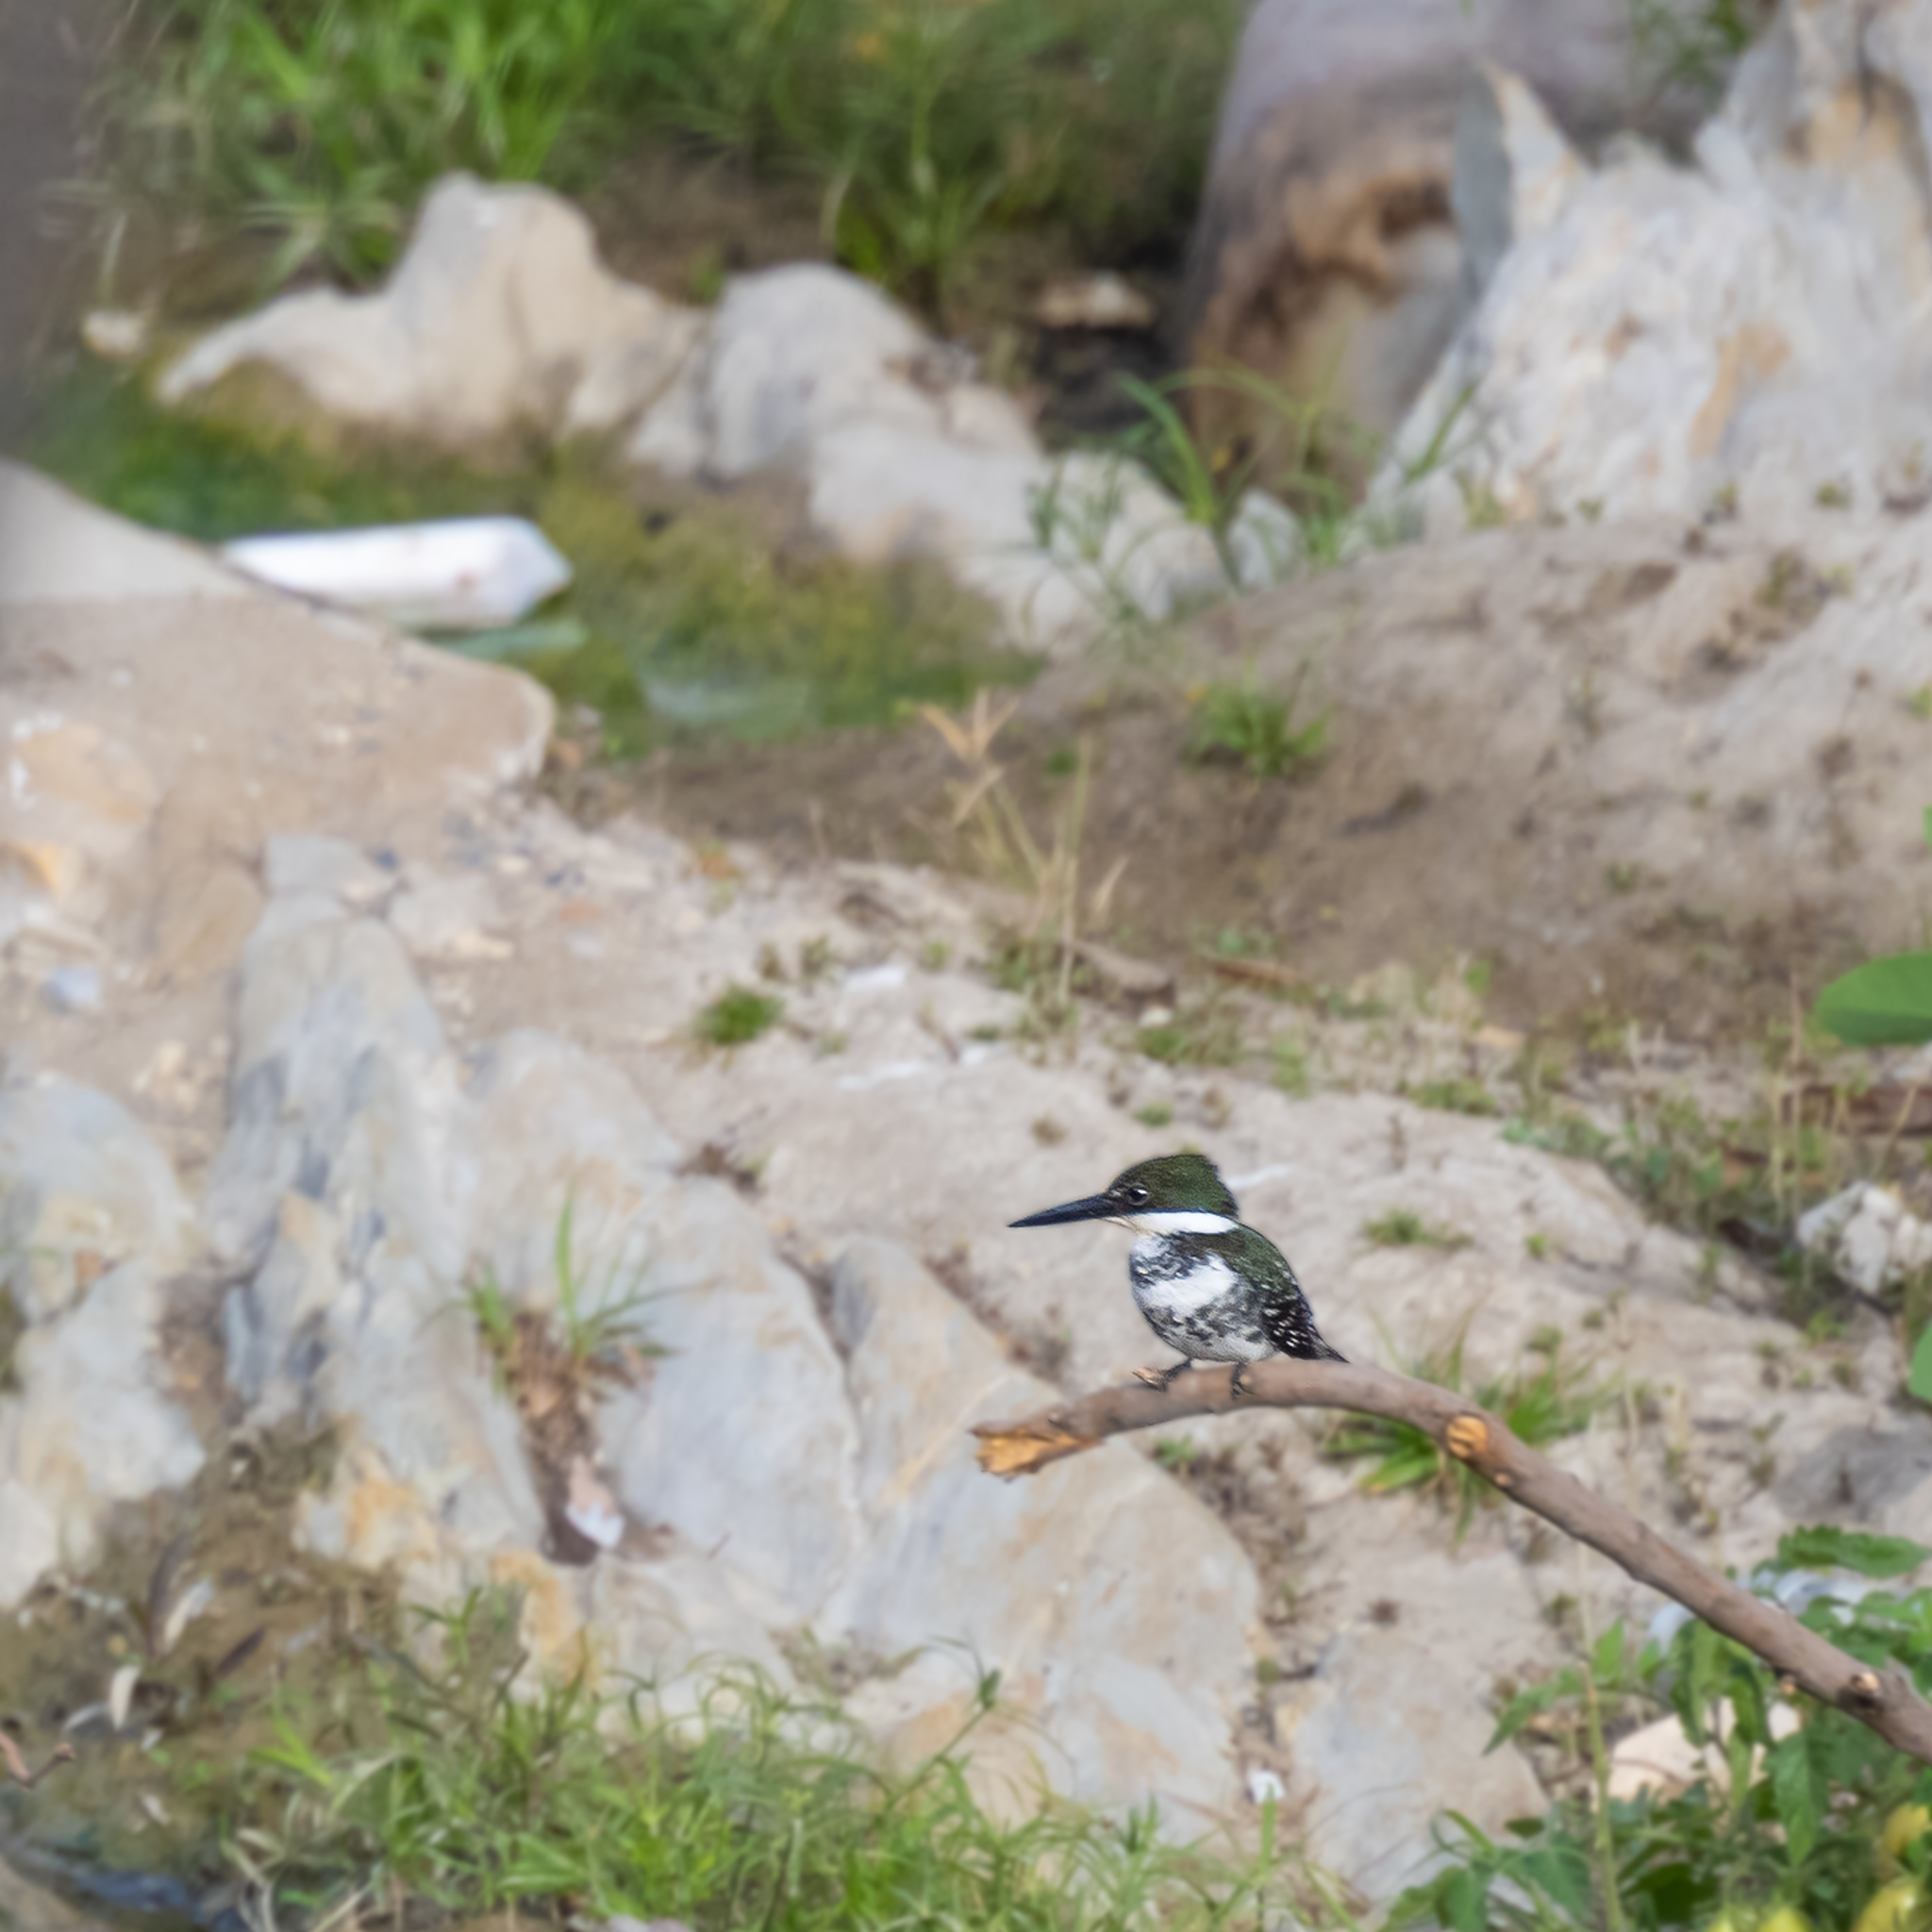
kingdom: Animalia
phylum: Chordata
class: Aves
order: Coraciiformes
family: Alcedinidae
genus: Chloroceryle
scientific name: Chloroceryle americana
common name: Green kingfisher
